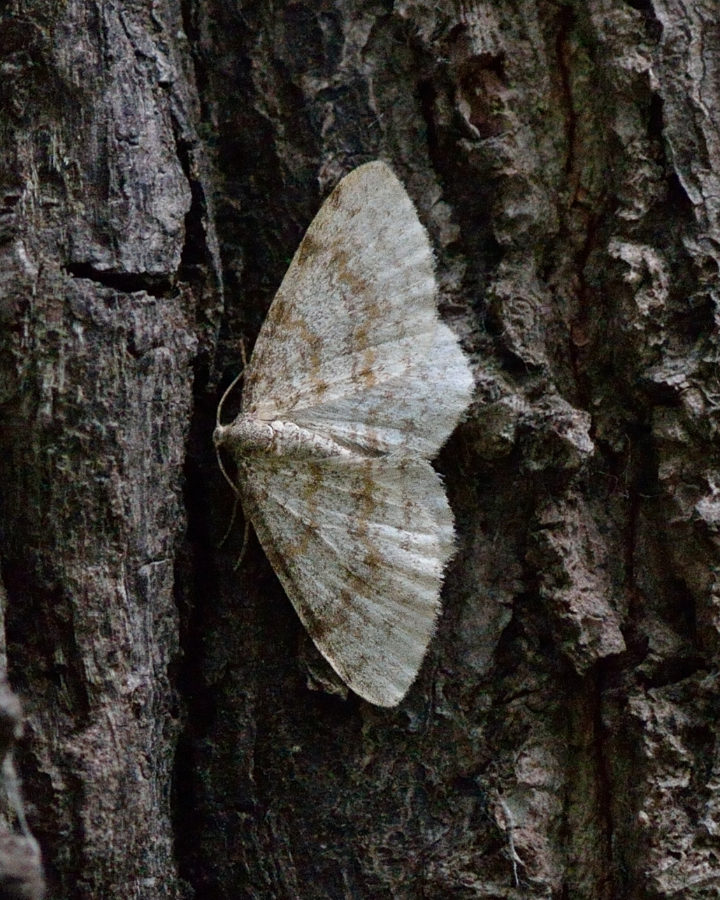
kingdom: Animalia
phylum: Arthropoda
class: Insecta
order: Lepidoptera
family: Geometridae
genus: Hydrelia
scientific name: Hydrelia sylvata
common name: Waved carpet
